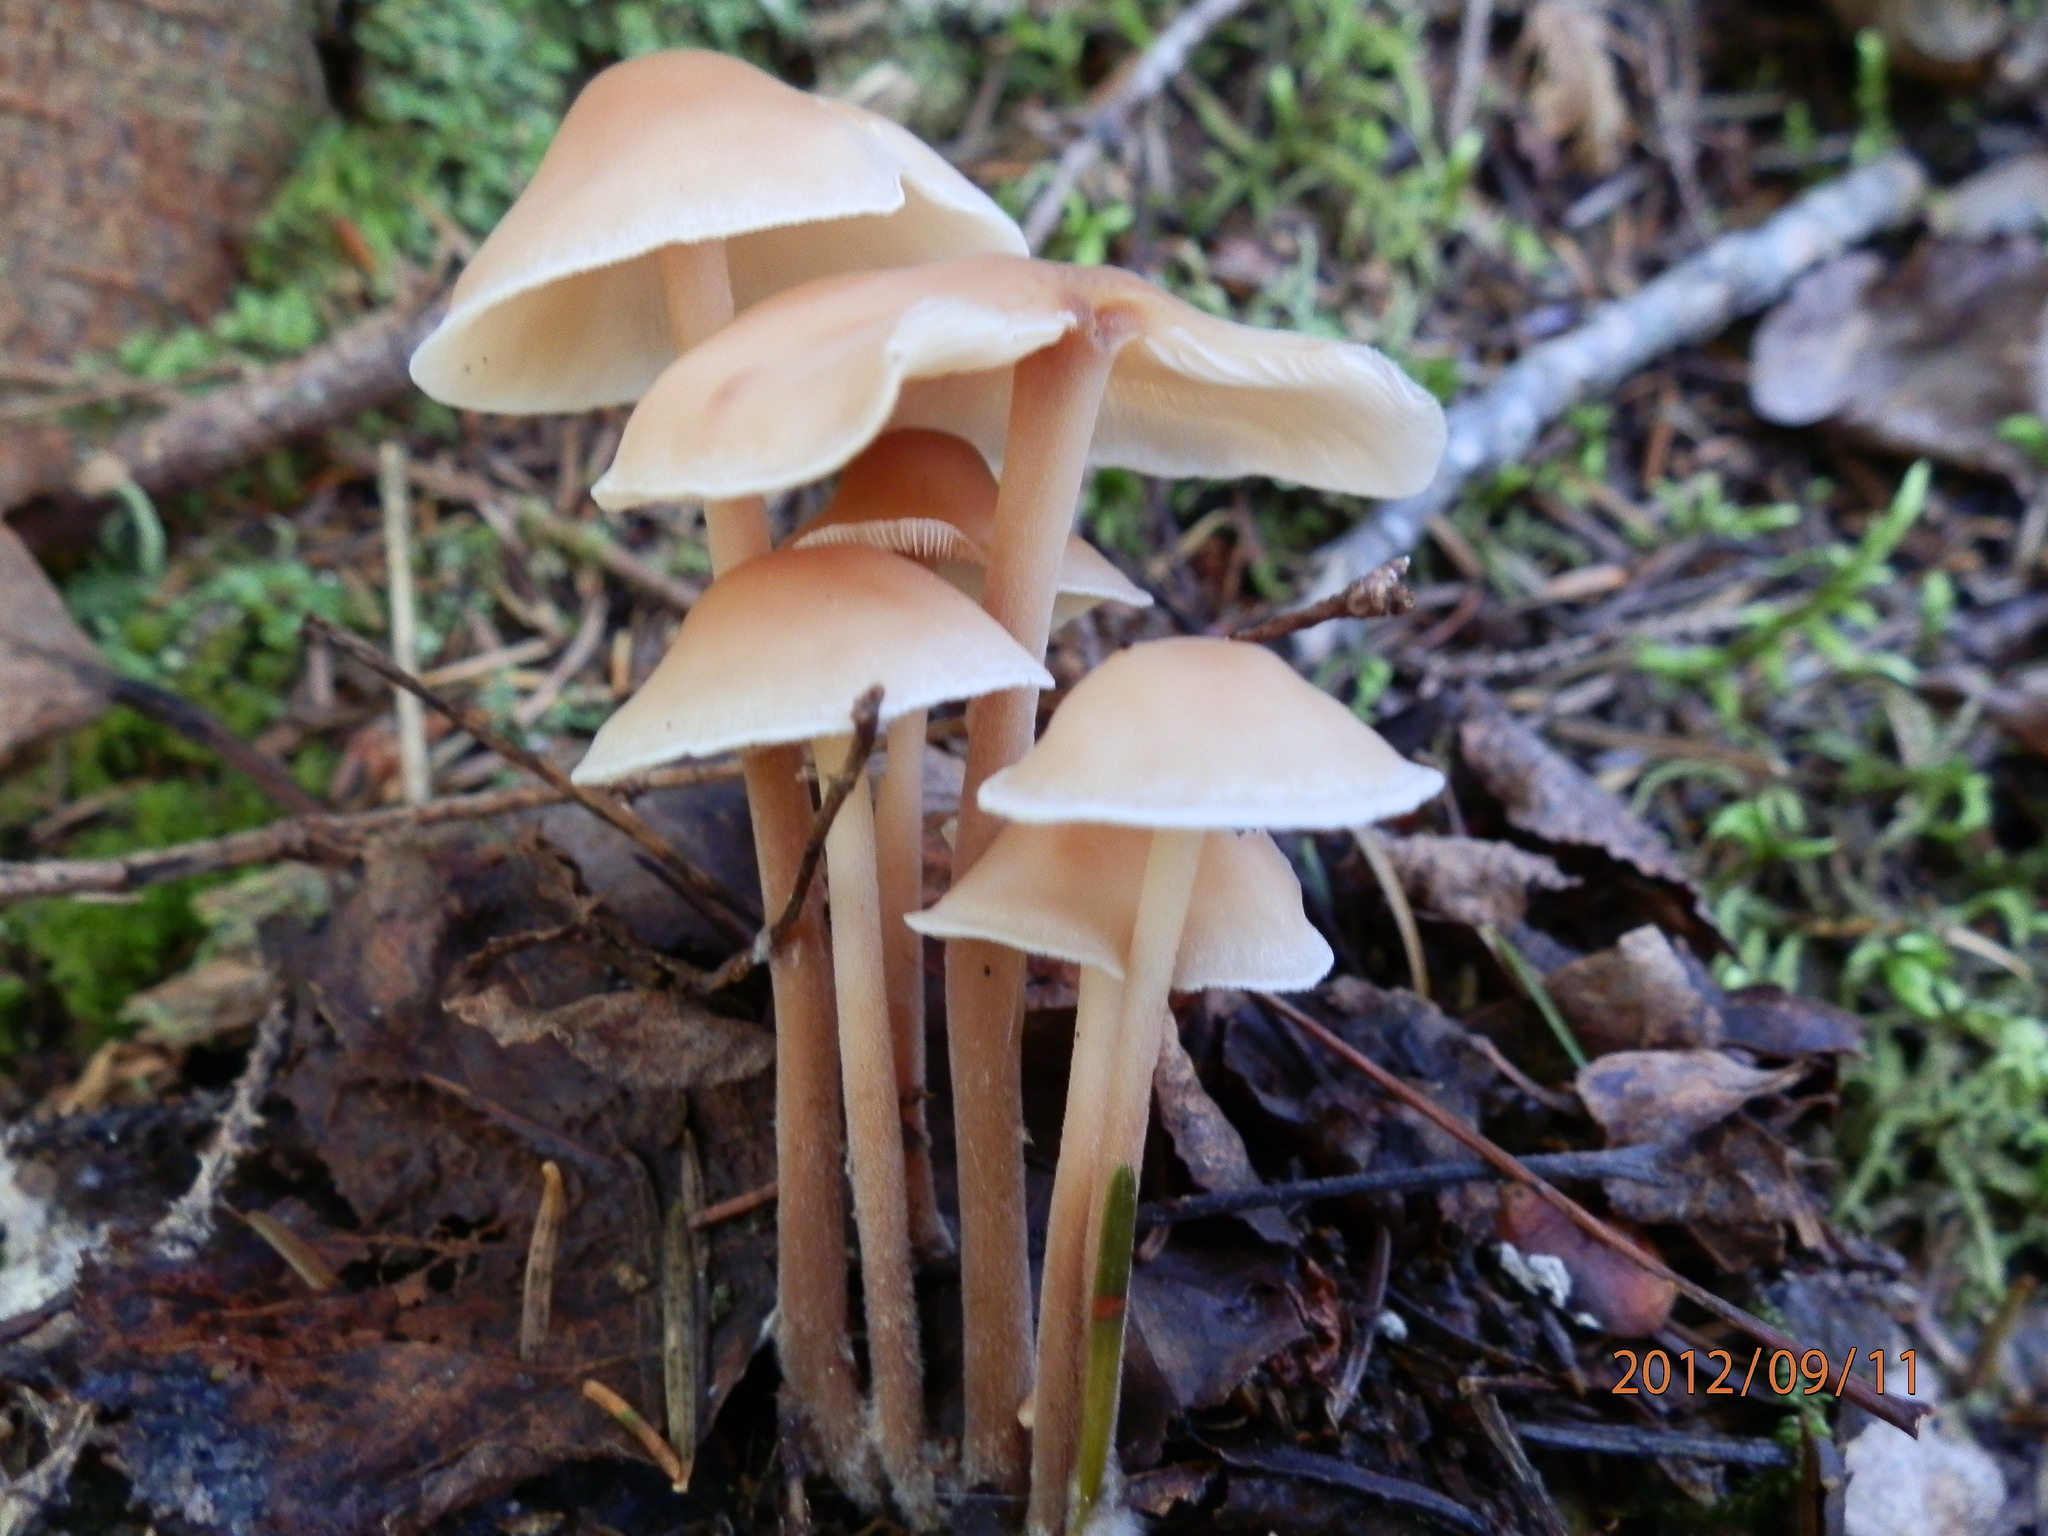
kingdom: Fungi
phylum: Basidiomycota
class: Agaricomycetes
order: Agaricales
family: Omphalotaceae
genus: Collybiopsis
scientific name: Collybiopsis confluens
